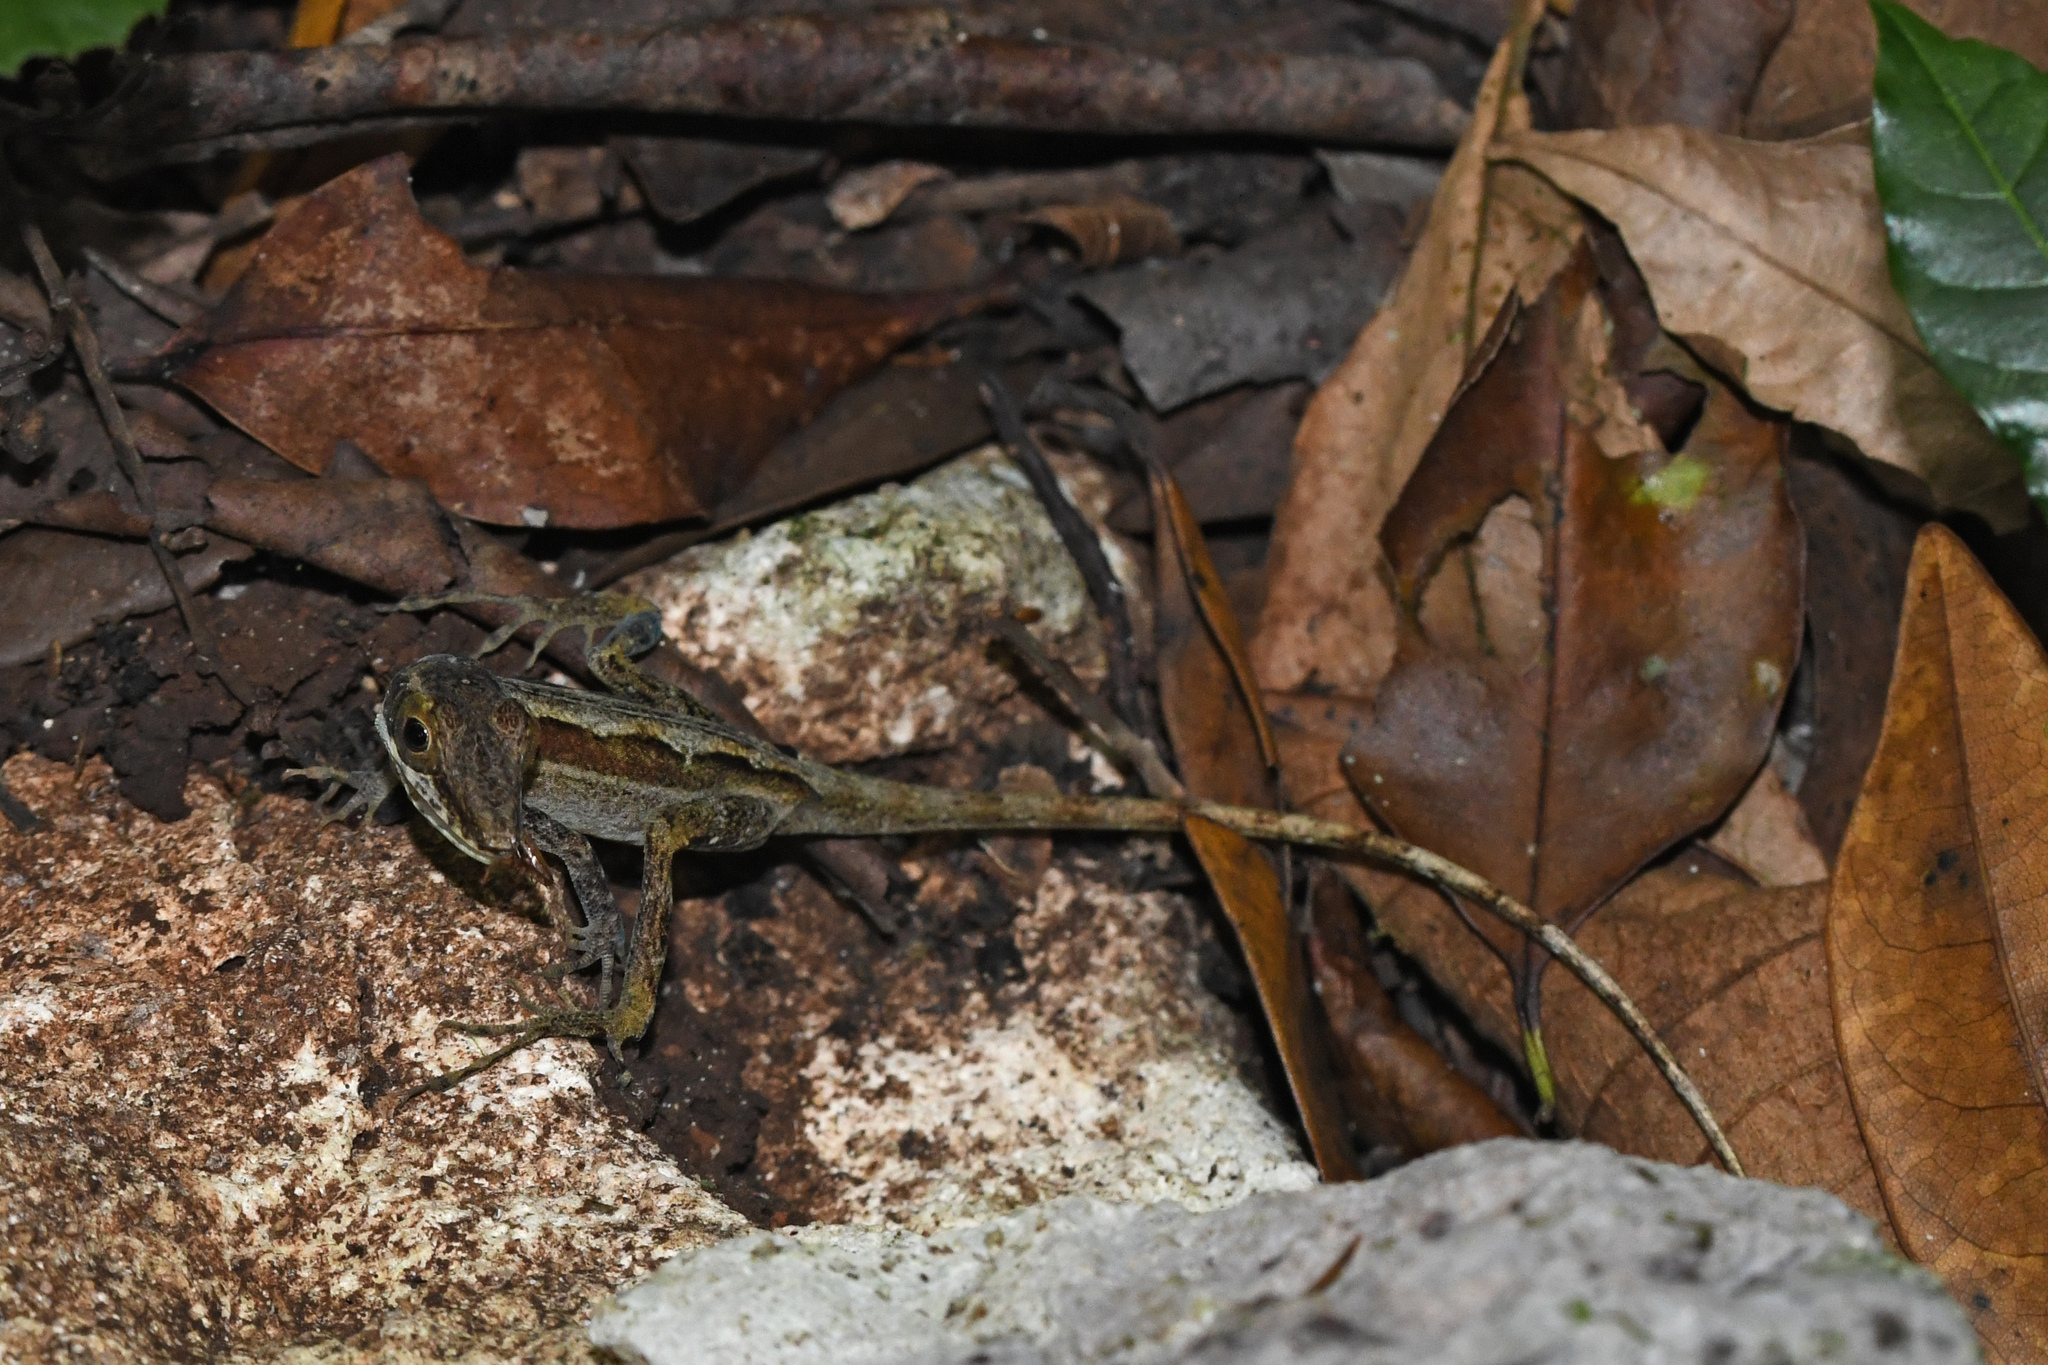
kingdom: Animalia
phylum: Chordata
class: Squamata
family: Dactyloidae
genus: Anolis
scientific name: Anolis bahorucoensis
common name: Bahoruco long-snouted anole
